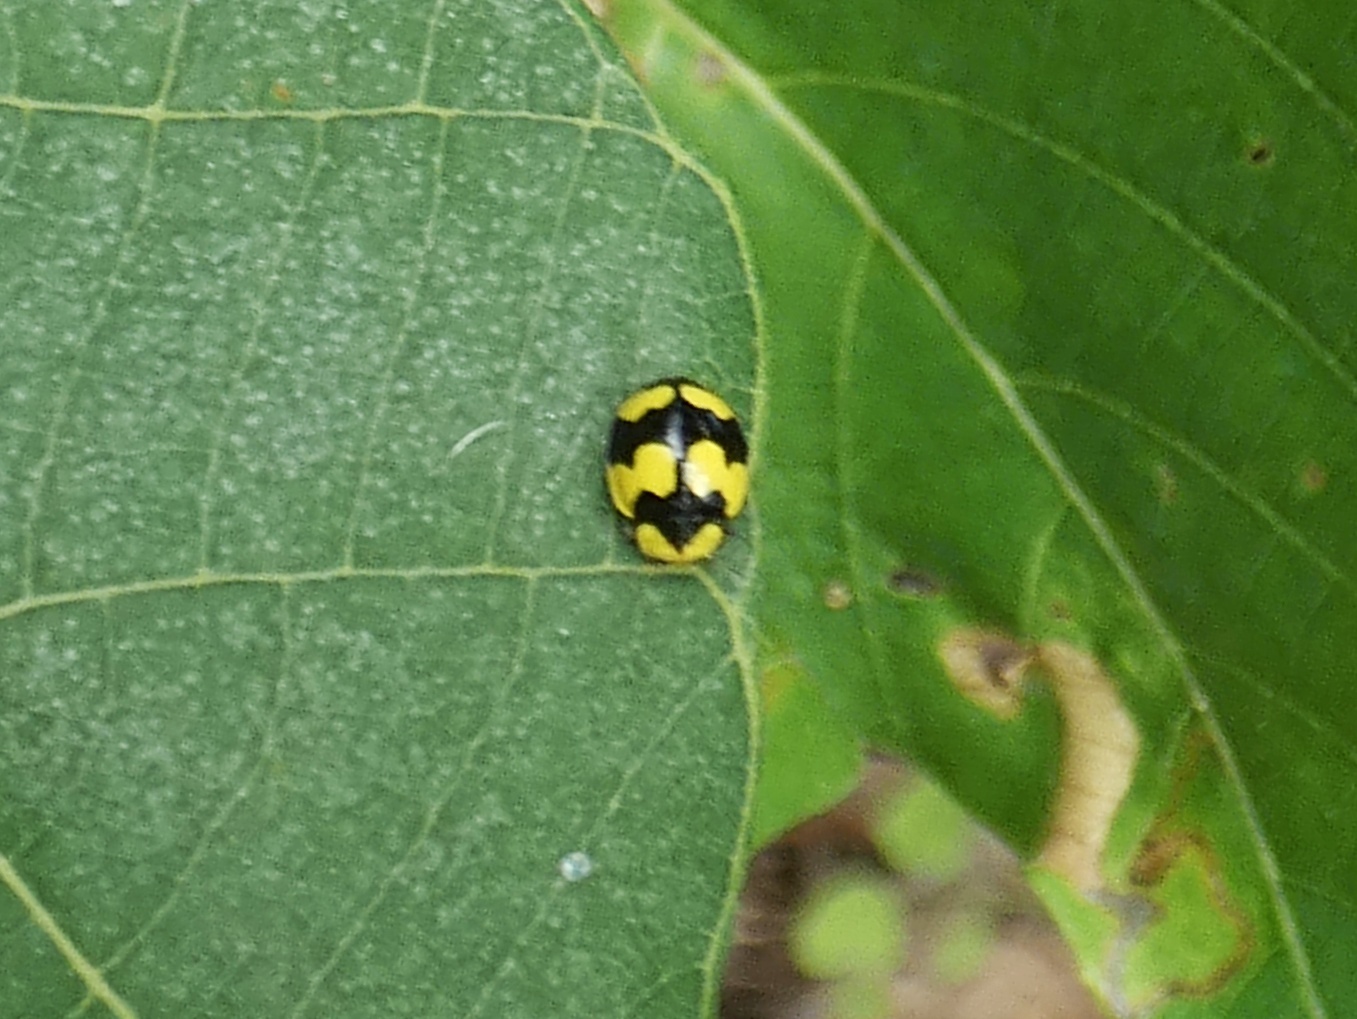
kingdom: Animalia
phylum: Arthropoda
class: Insecta
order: Coleoptera
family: Coccinellidae
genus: Illeis
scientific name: Illeis galbula
